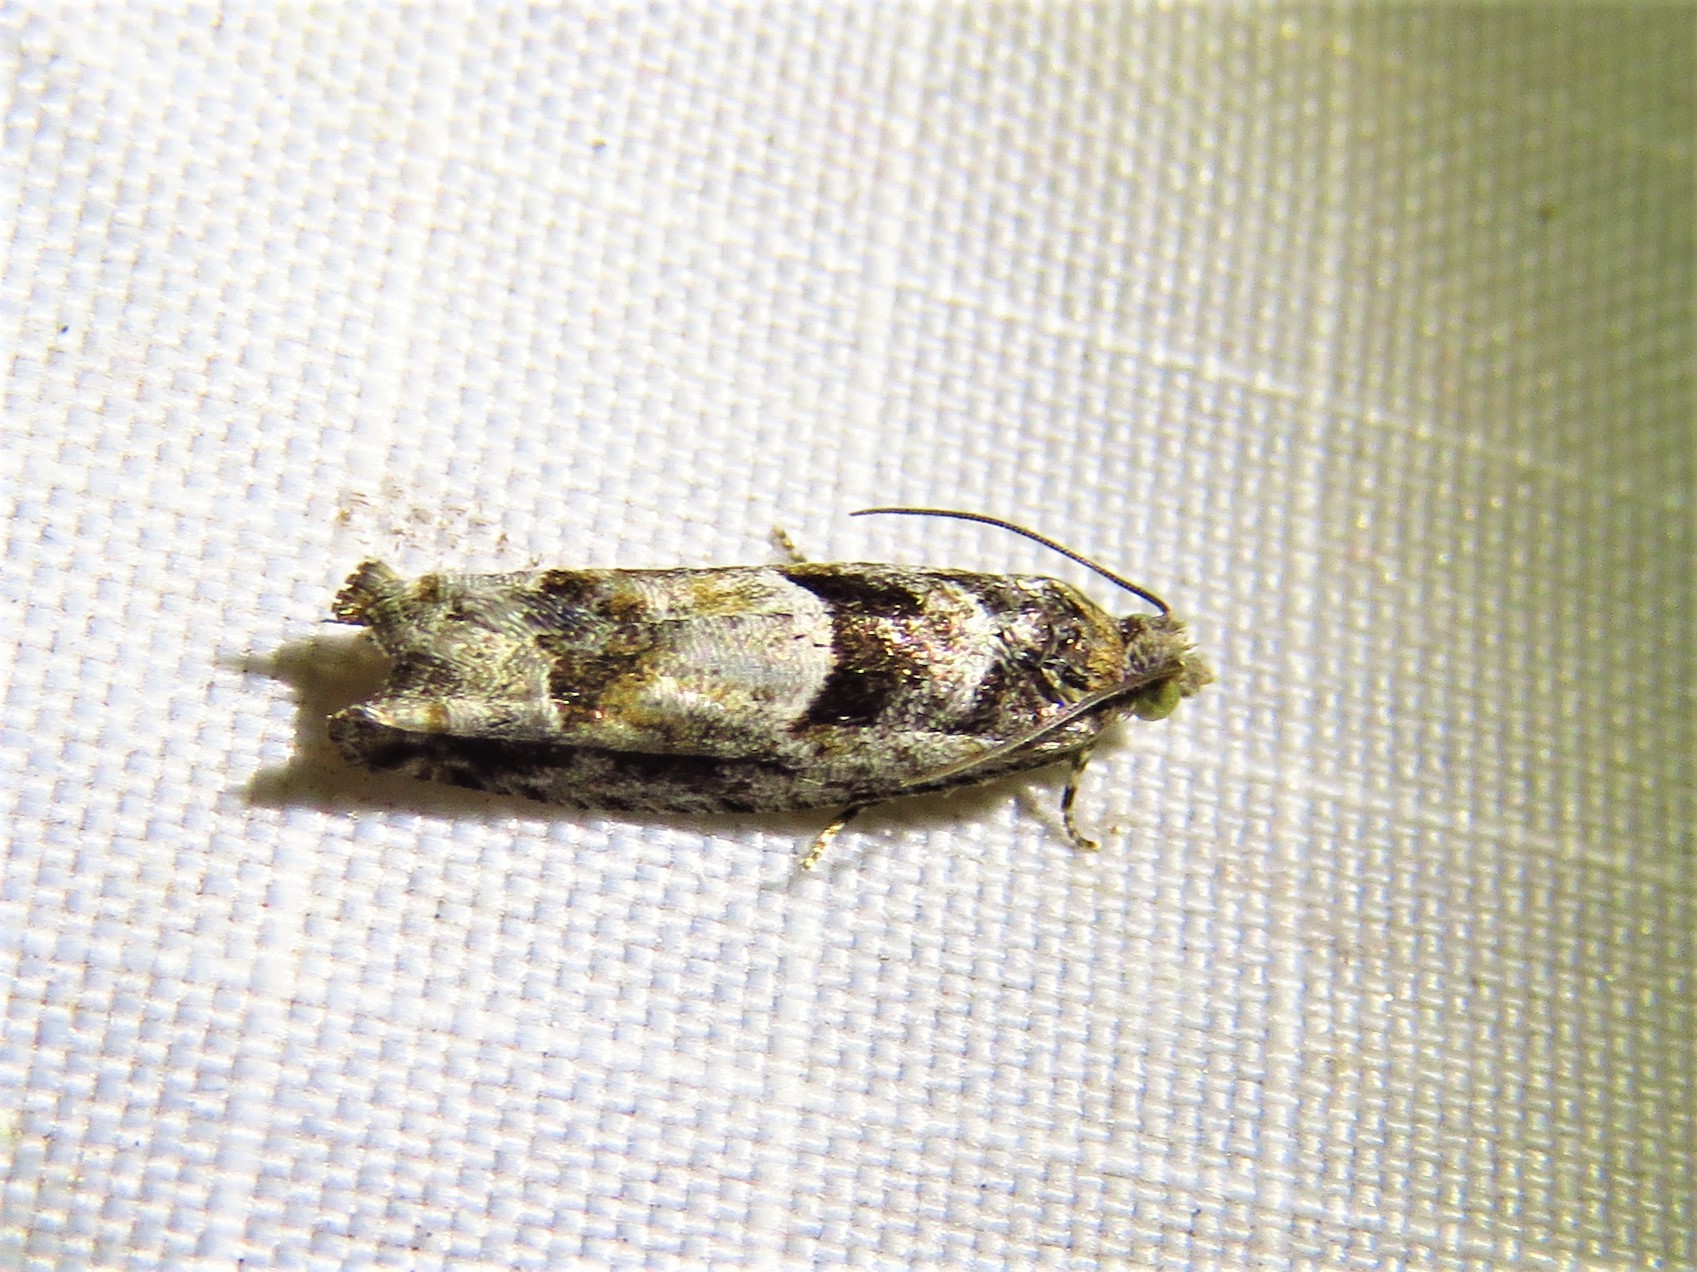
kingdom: Animalia
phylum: Arthropoda
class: Insecta
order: Lepidoptera
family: Tortricidae
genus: Pseudexentera
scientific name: Pseudexentera hodsoni
